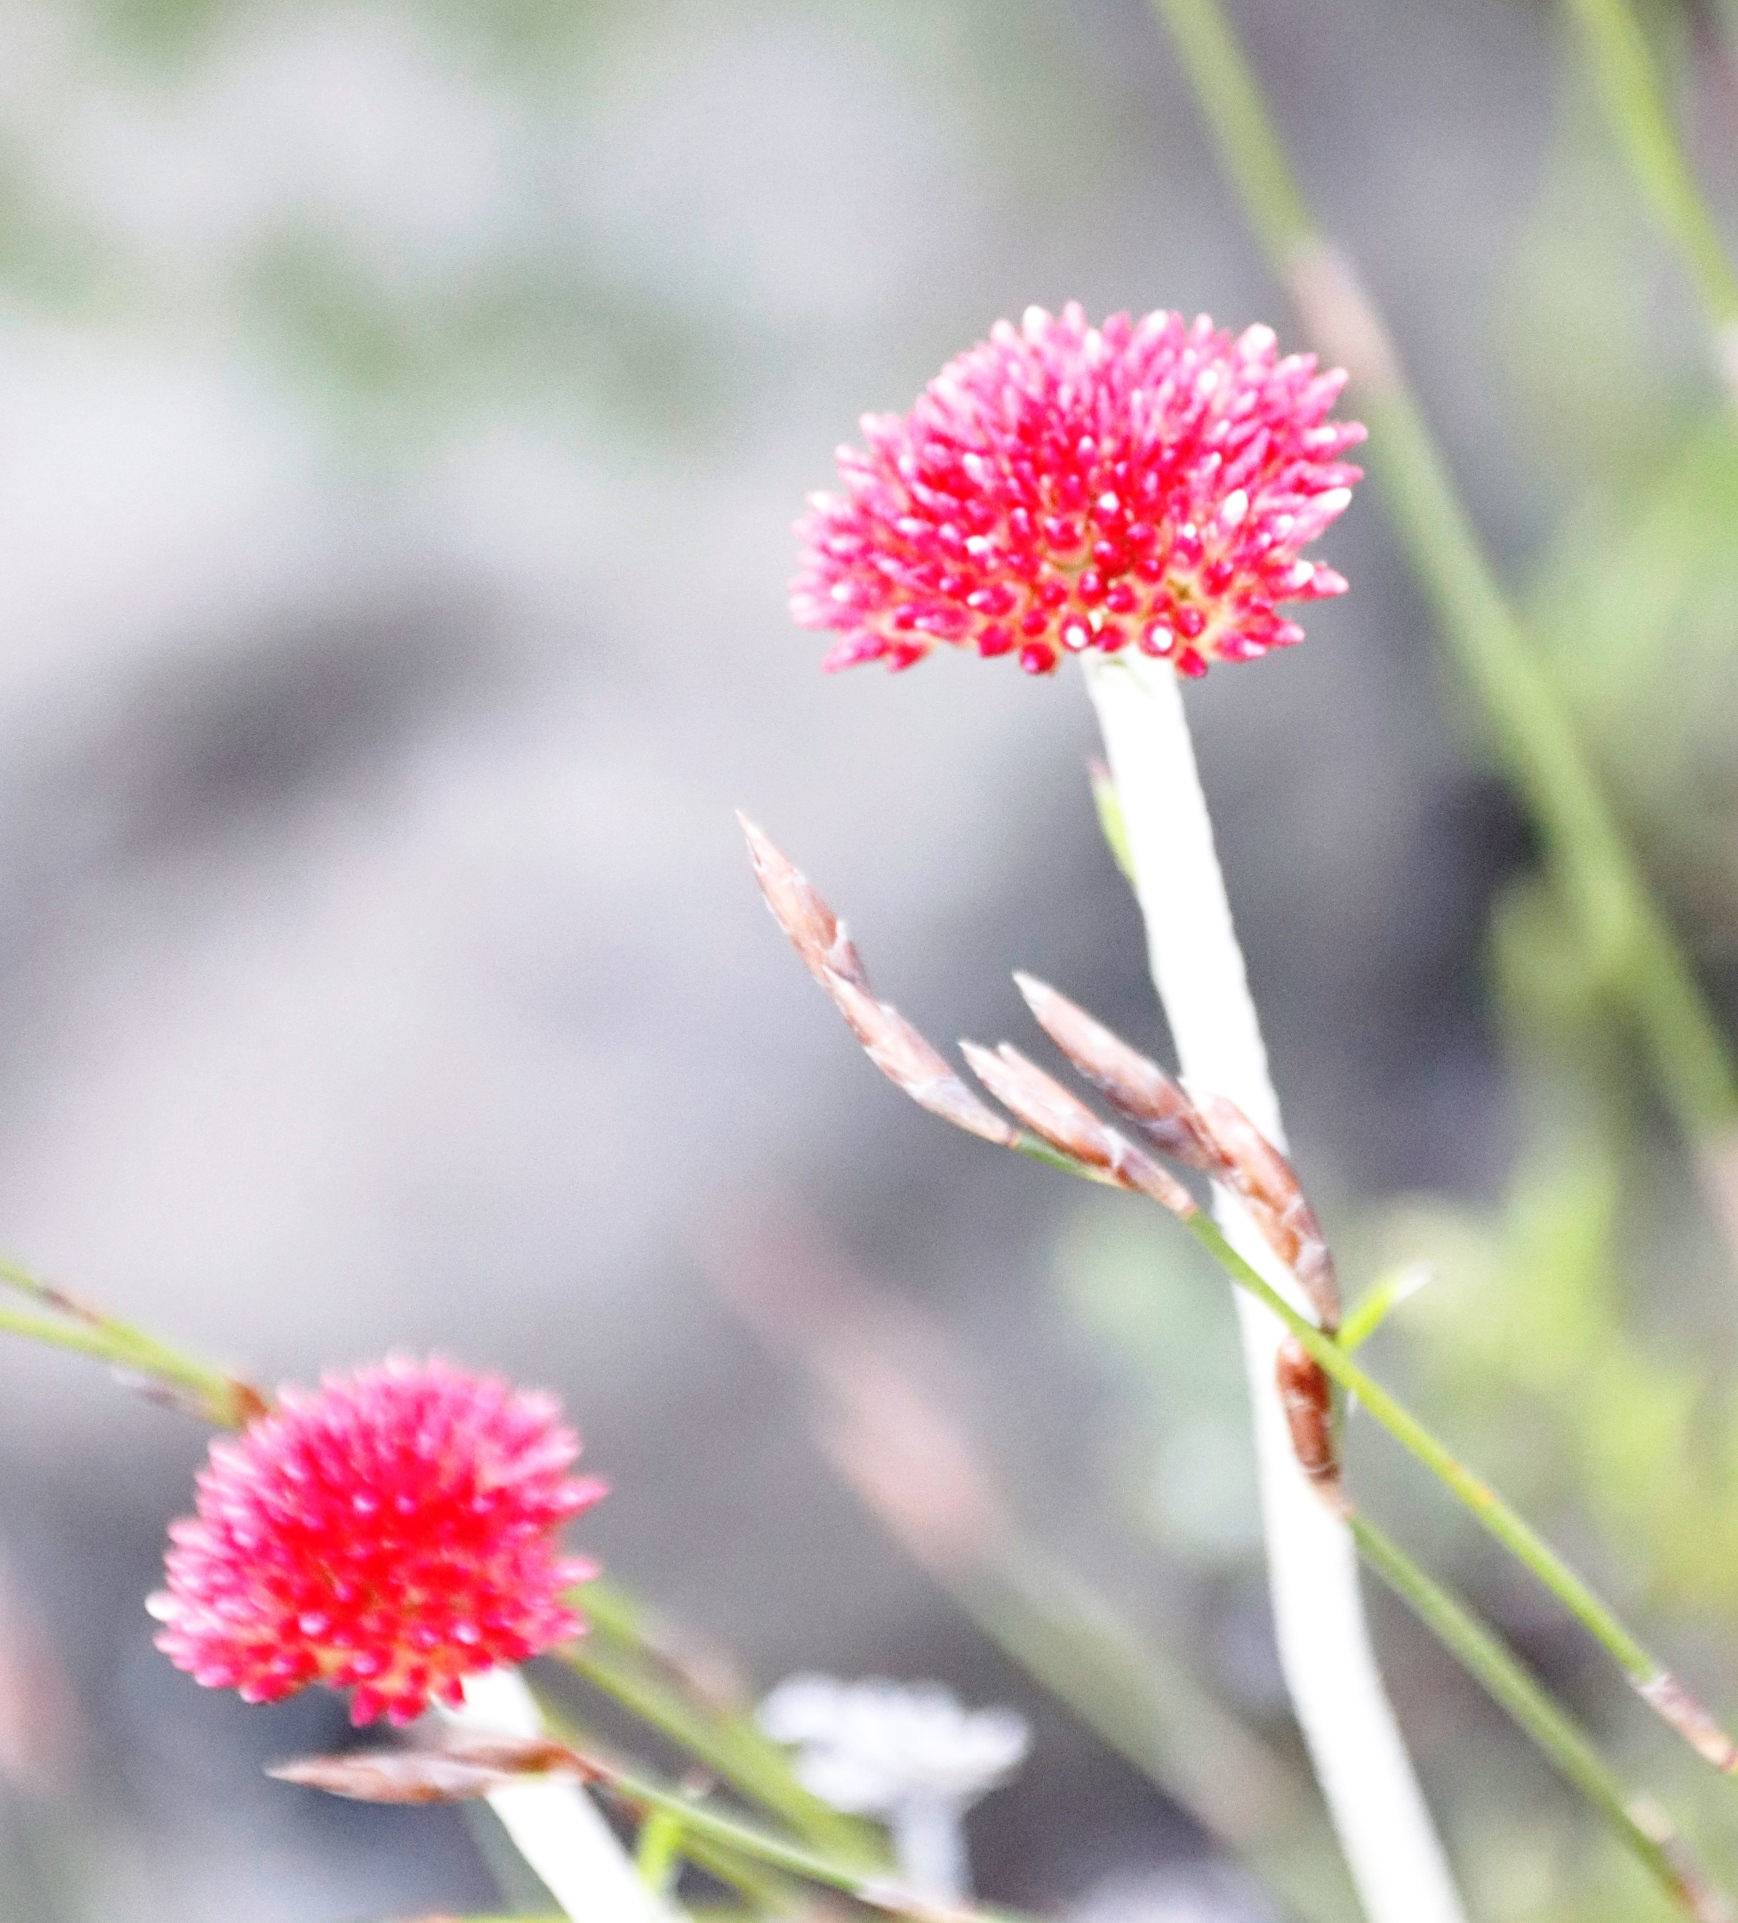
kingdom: Plantae
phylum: Tracheophyta
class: Magnoliopsida
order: Asterales
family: Asteraceae
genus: Anaxeton
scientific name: Anaxeton arborescens
